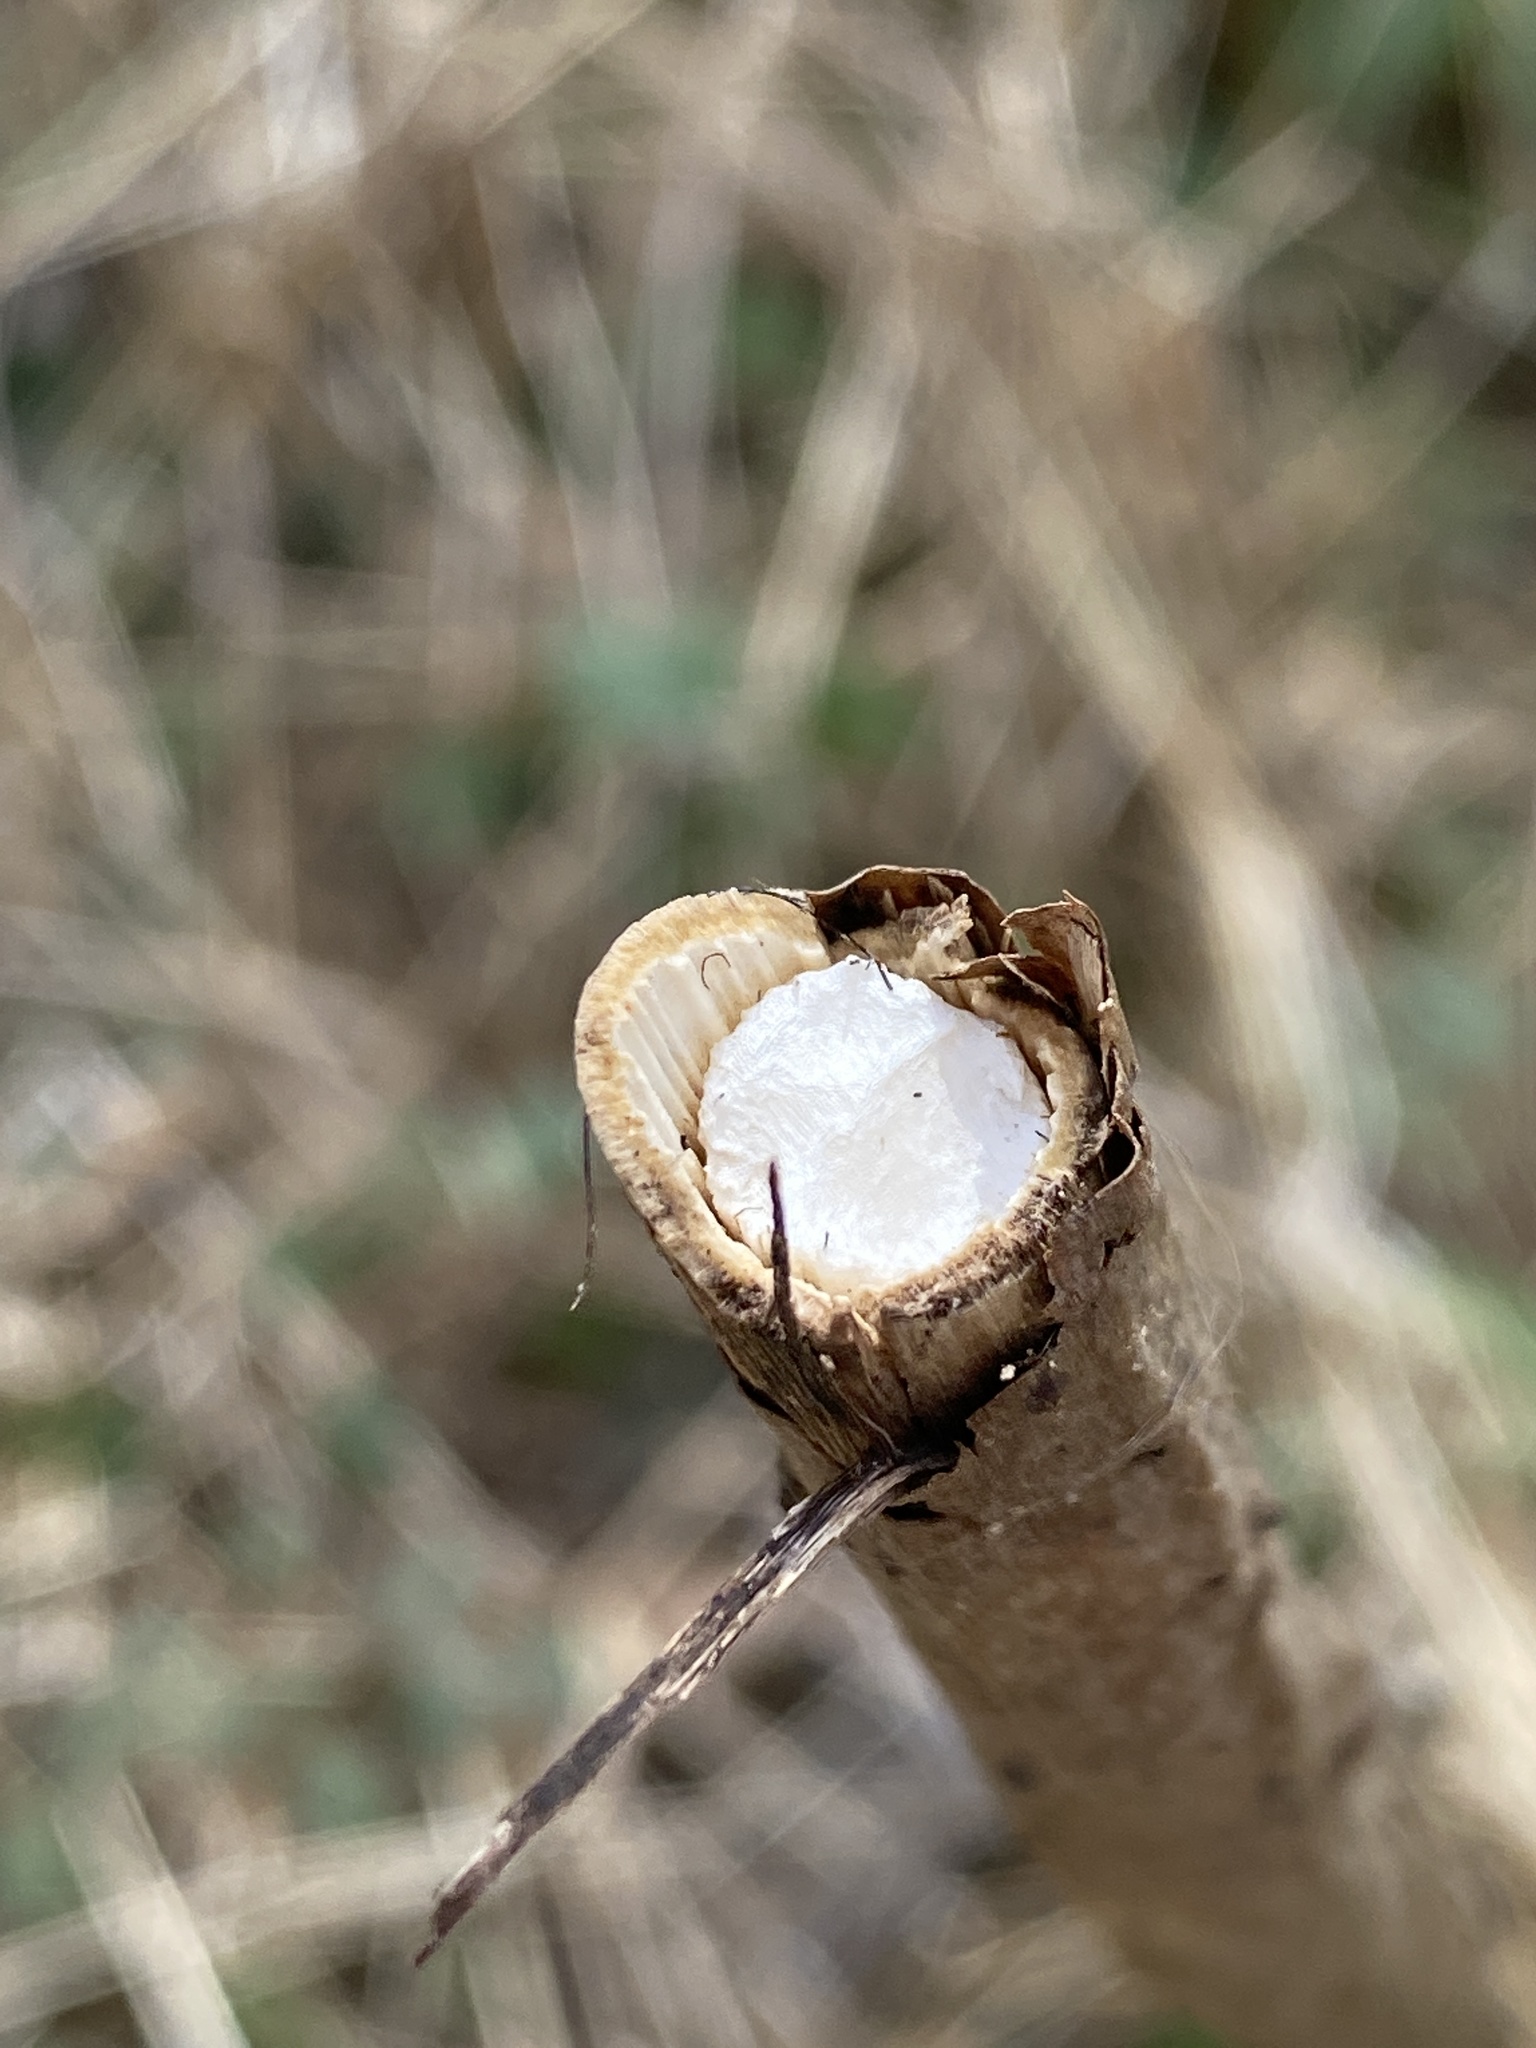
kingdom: Plantae
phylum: Tracheophyta
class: Magnoliopsida
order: Dipsacales
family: Viburnaceae
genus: Sambucus
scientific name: Sambucus canadensis
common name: American elder
